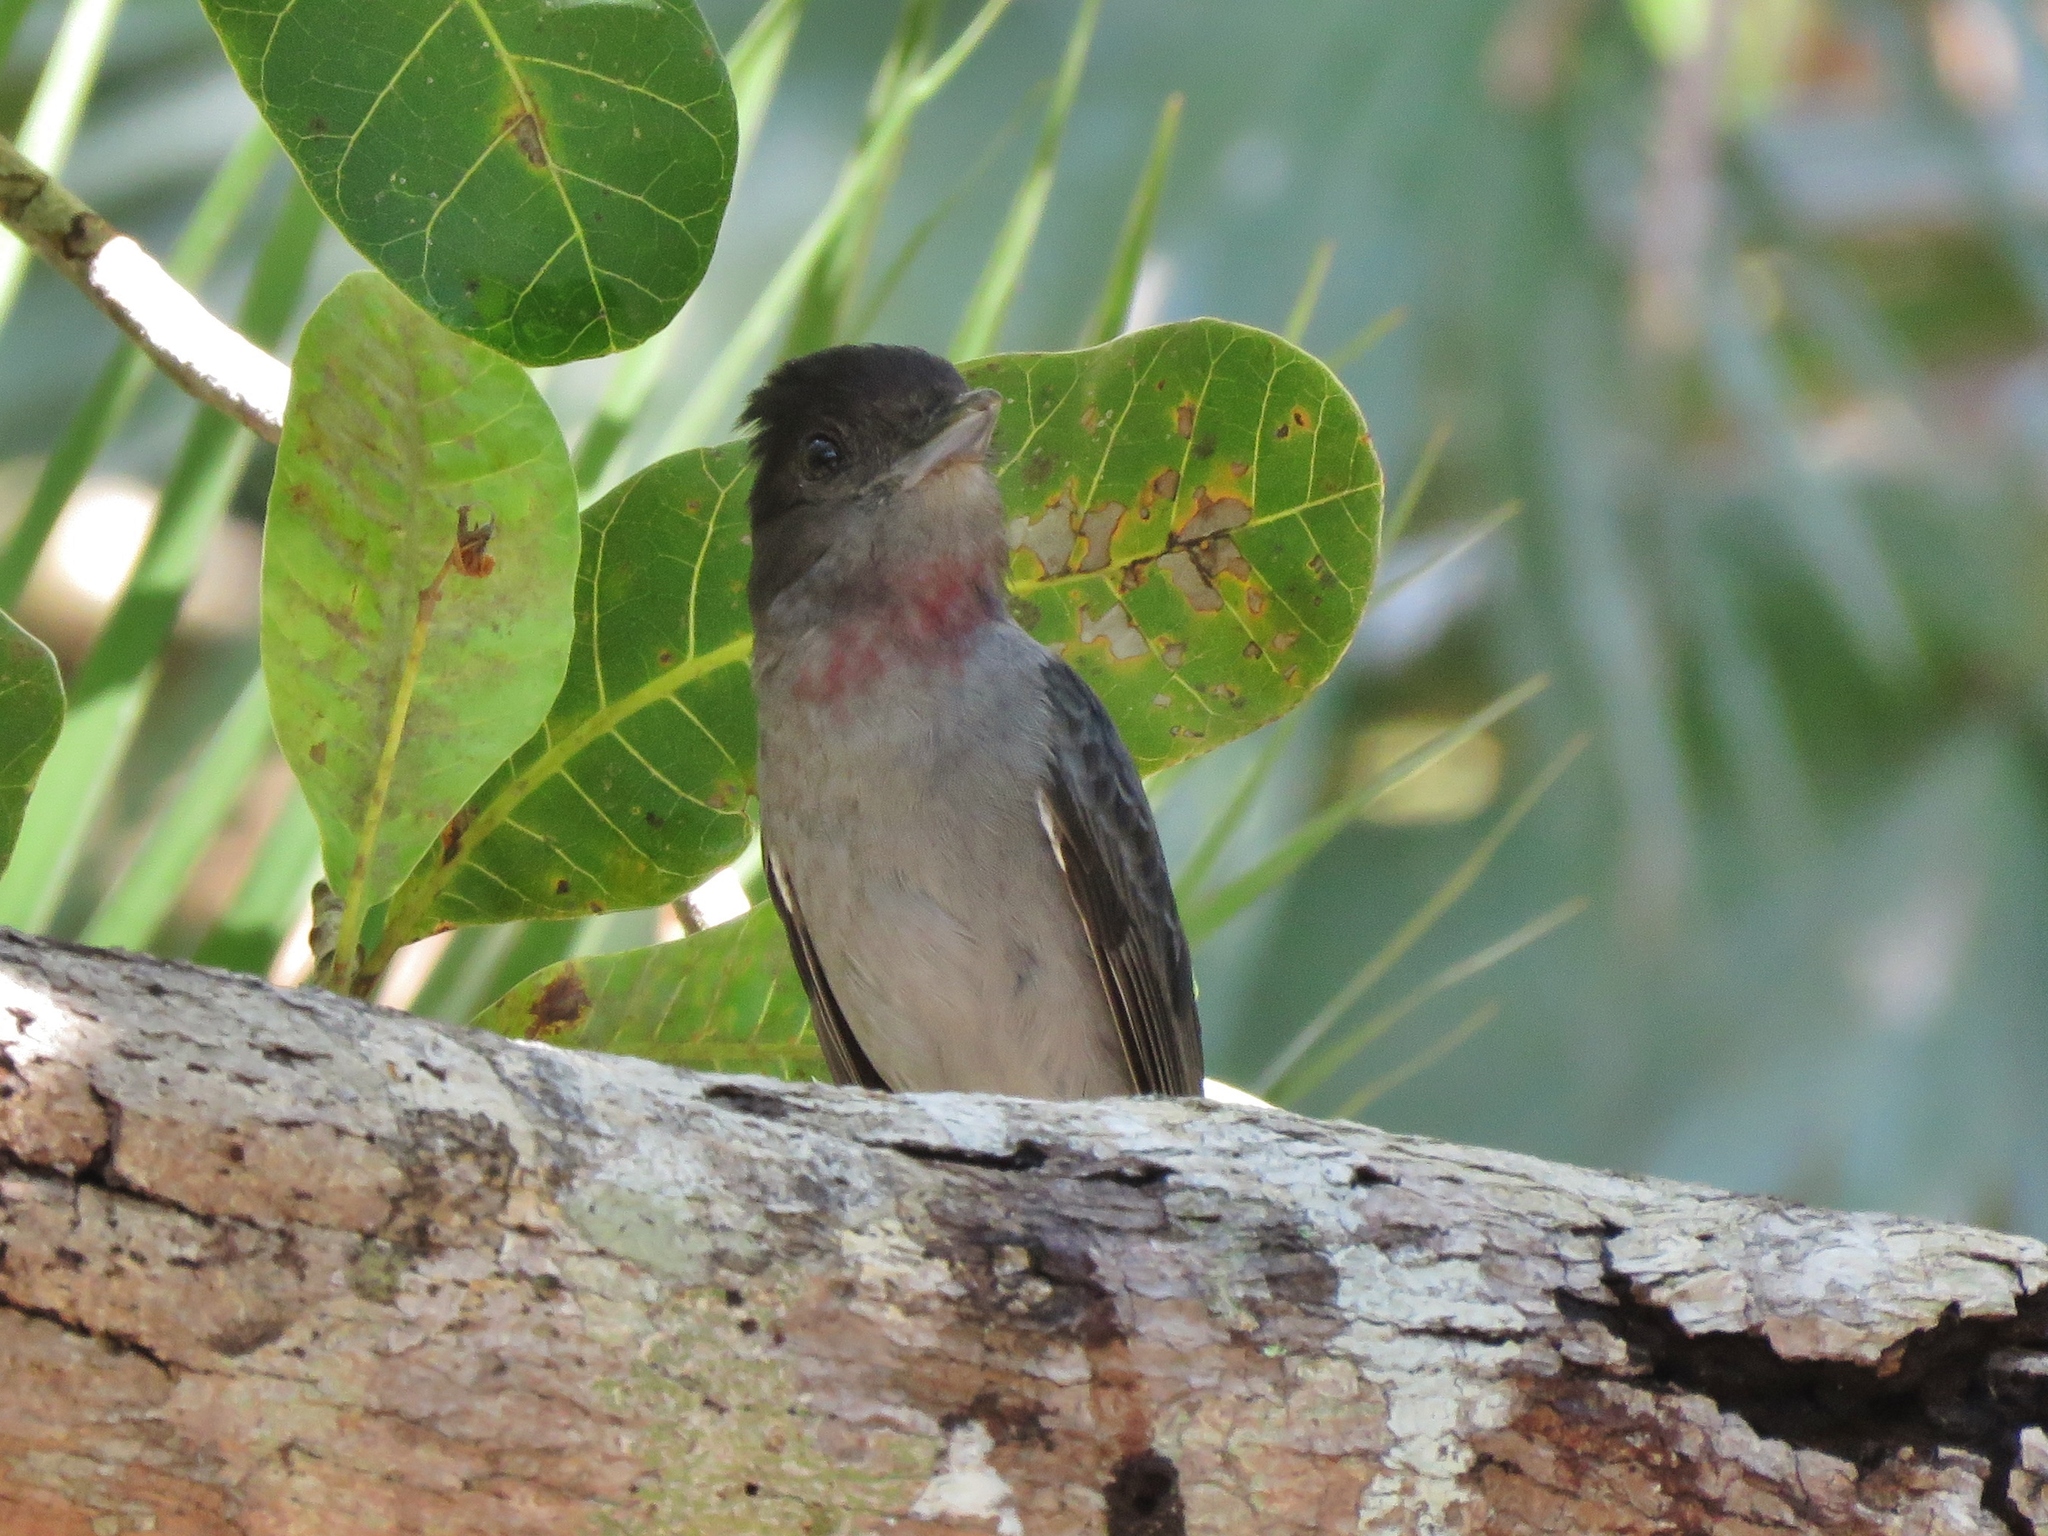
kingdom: Animalia
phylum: Chordata
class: Aves
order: Passeriformes
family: Cotingidae
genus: Pachyramphus
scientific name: Pachyramphus aglaiae
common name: Rose-throated becard
